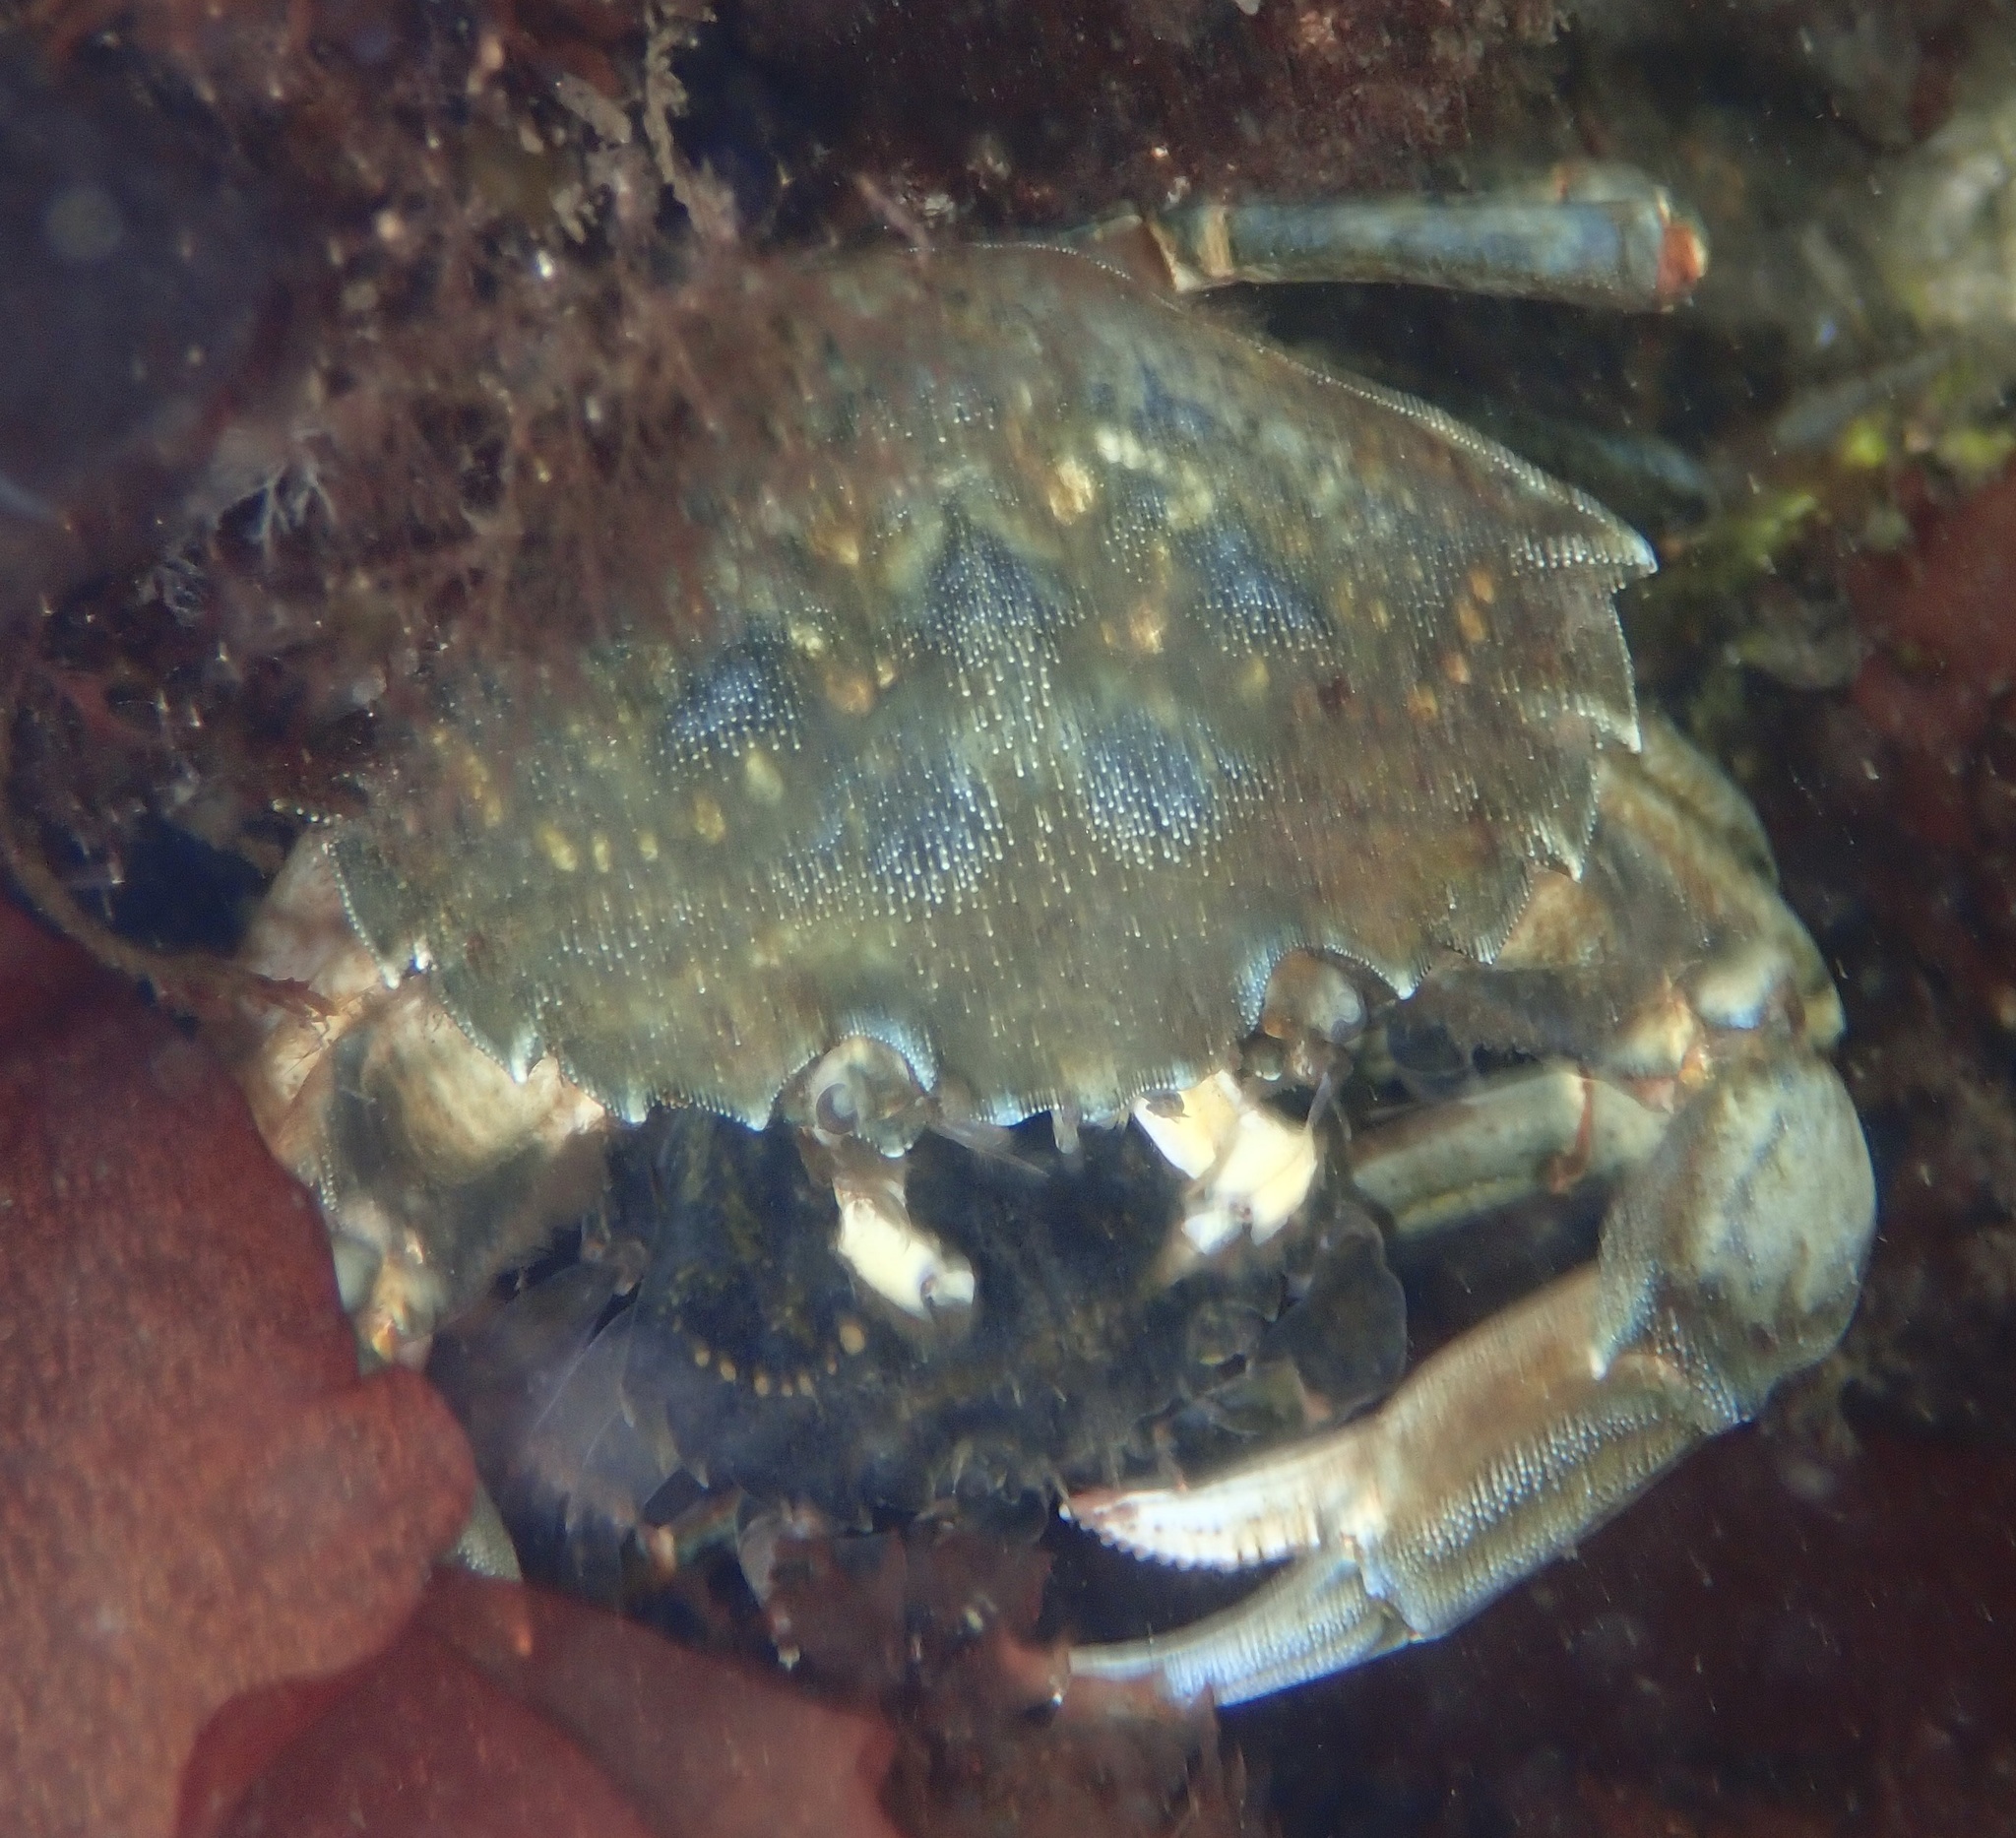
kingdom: Animalia
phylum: Arthropoda
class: Malacostraca
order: Decapoda
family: Carcinidae
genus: Carcinus
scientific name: Carcinus maenas
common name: European green crab
